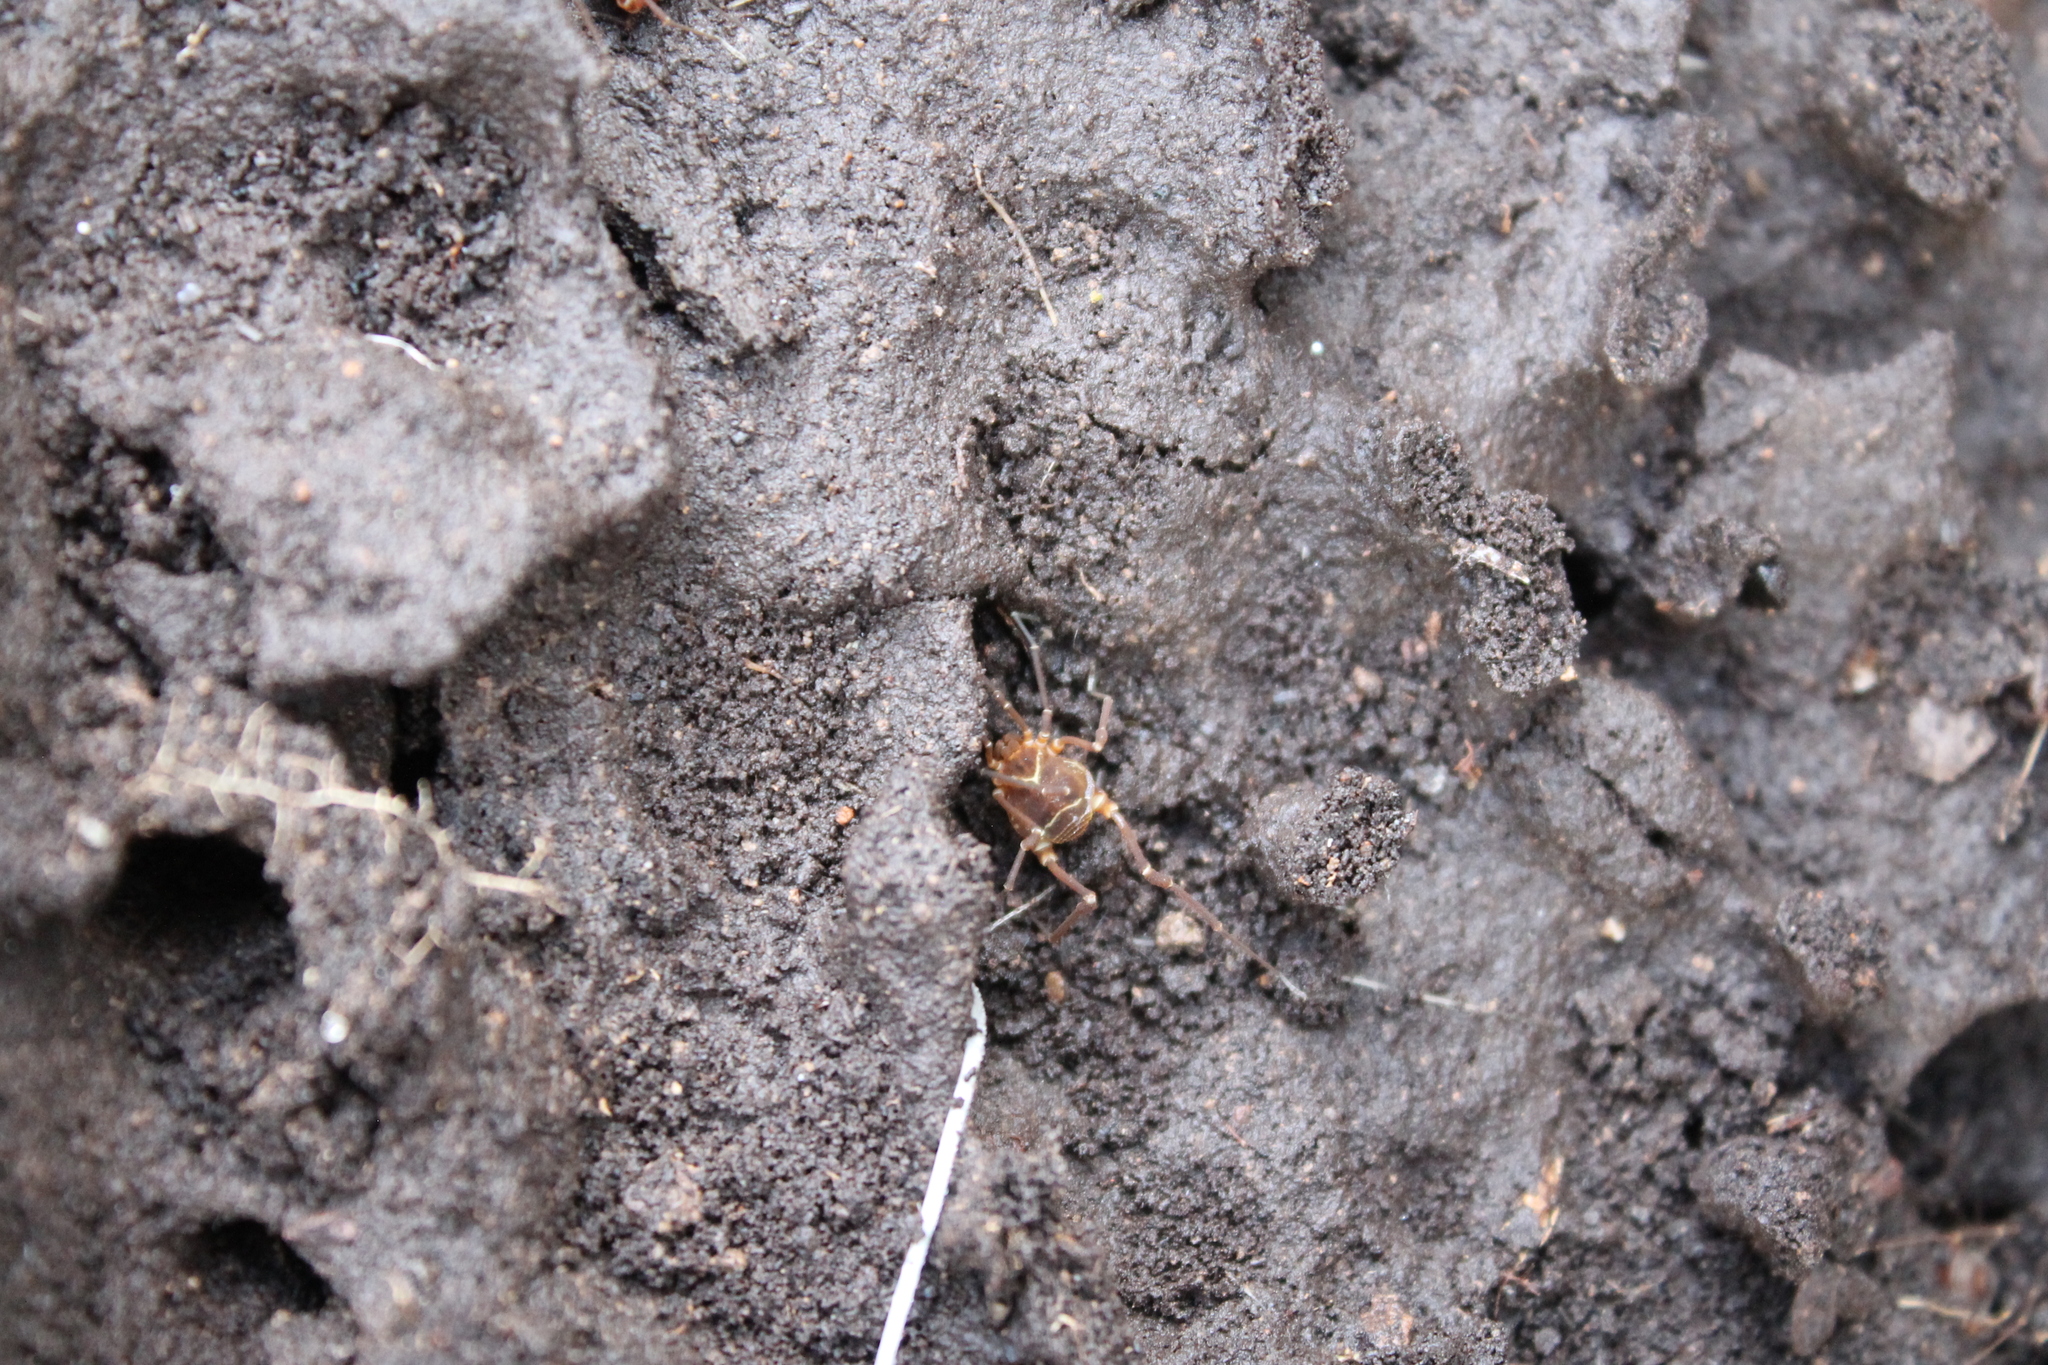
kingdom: Animalia
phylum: Arthropoda
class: Arachnida
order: Opiliones
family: Cosmetidae
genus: Libitioides
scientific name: Libitioides sayi
